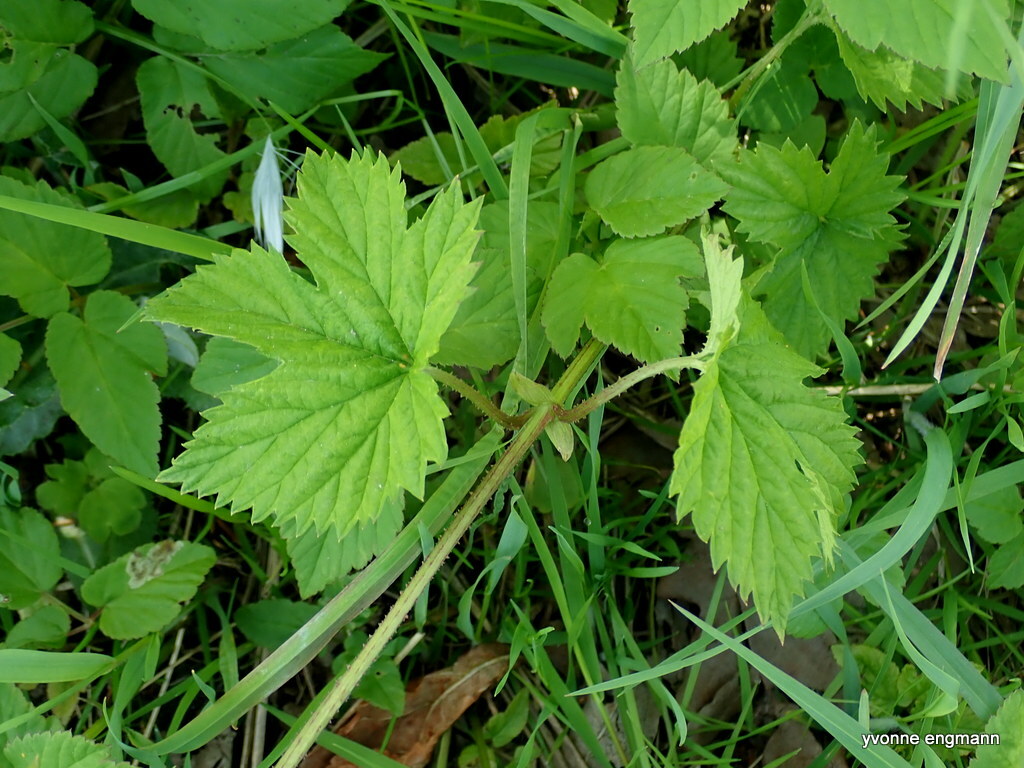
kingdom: Plantae
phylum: Tracheophyta
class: Magnoliopsida
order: Rosales
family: Cannabaceae
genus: Humulus
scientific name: Humulus lupulus
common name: Hop
